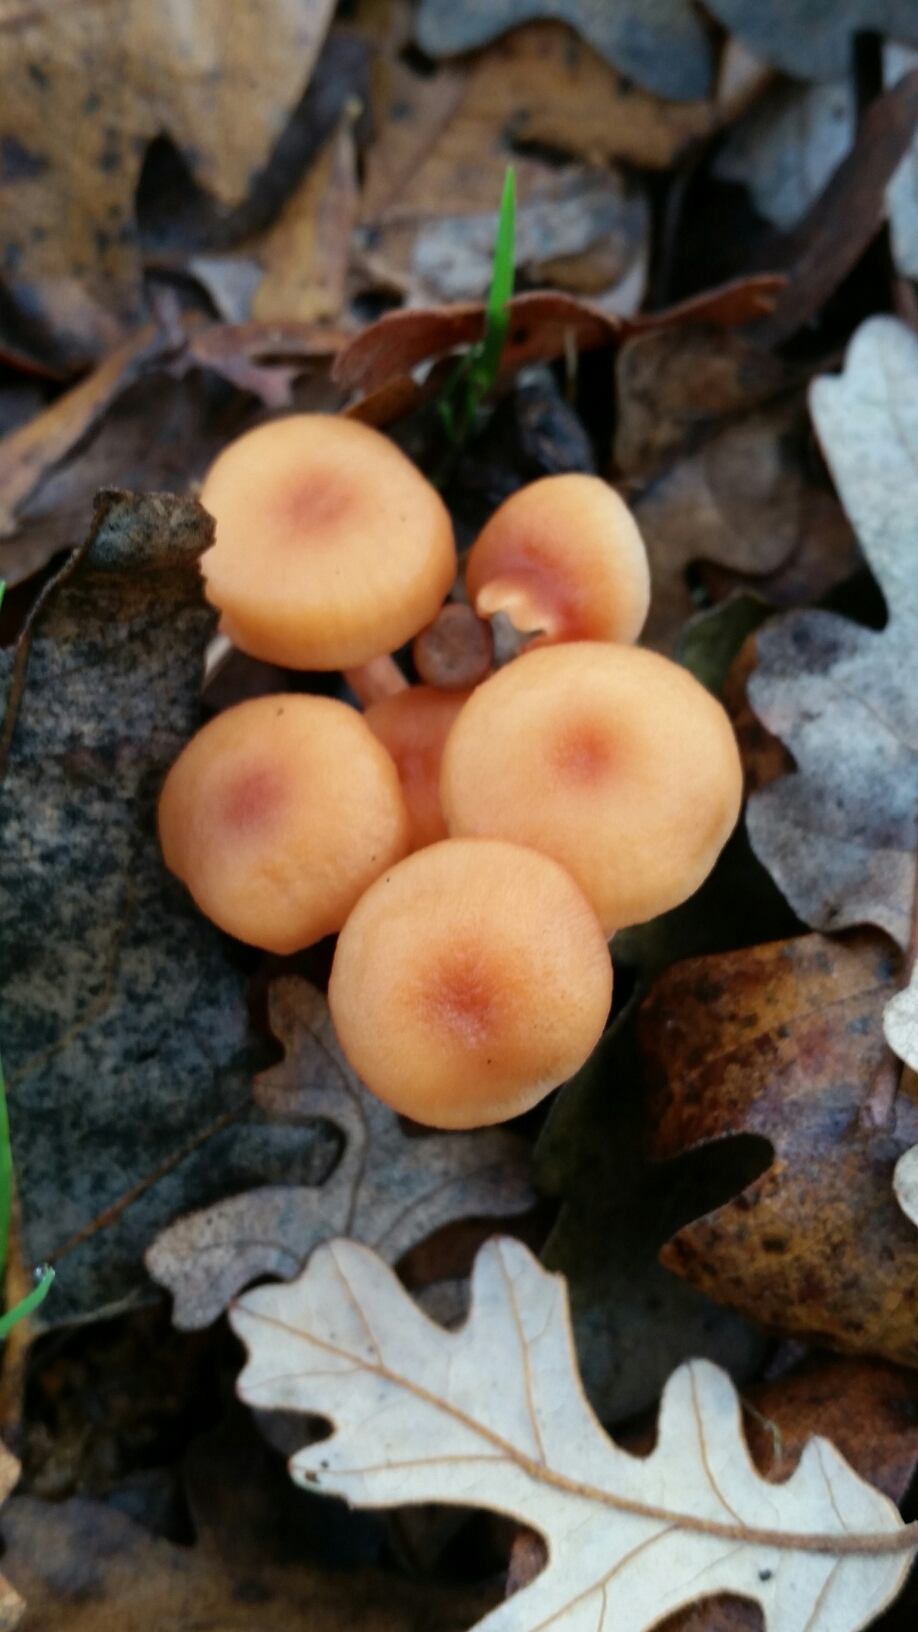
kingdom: Fungi
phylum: Basidiomycota
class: Agaricomycetes
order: Agaricales
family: Hydnangiaceae
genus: Laccaria
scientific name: Laccaria laccata
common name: Deceiver
